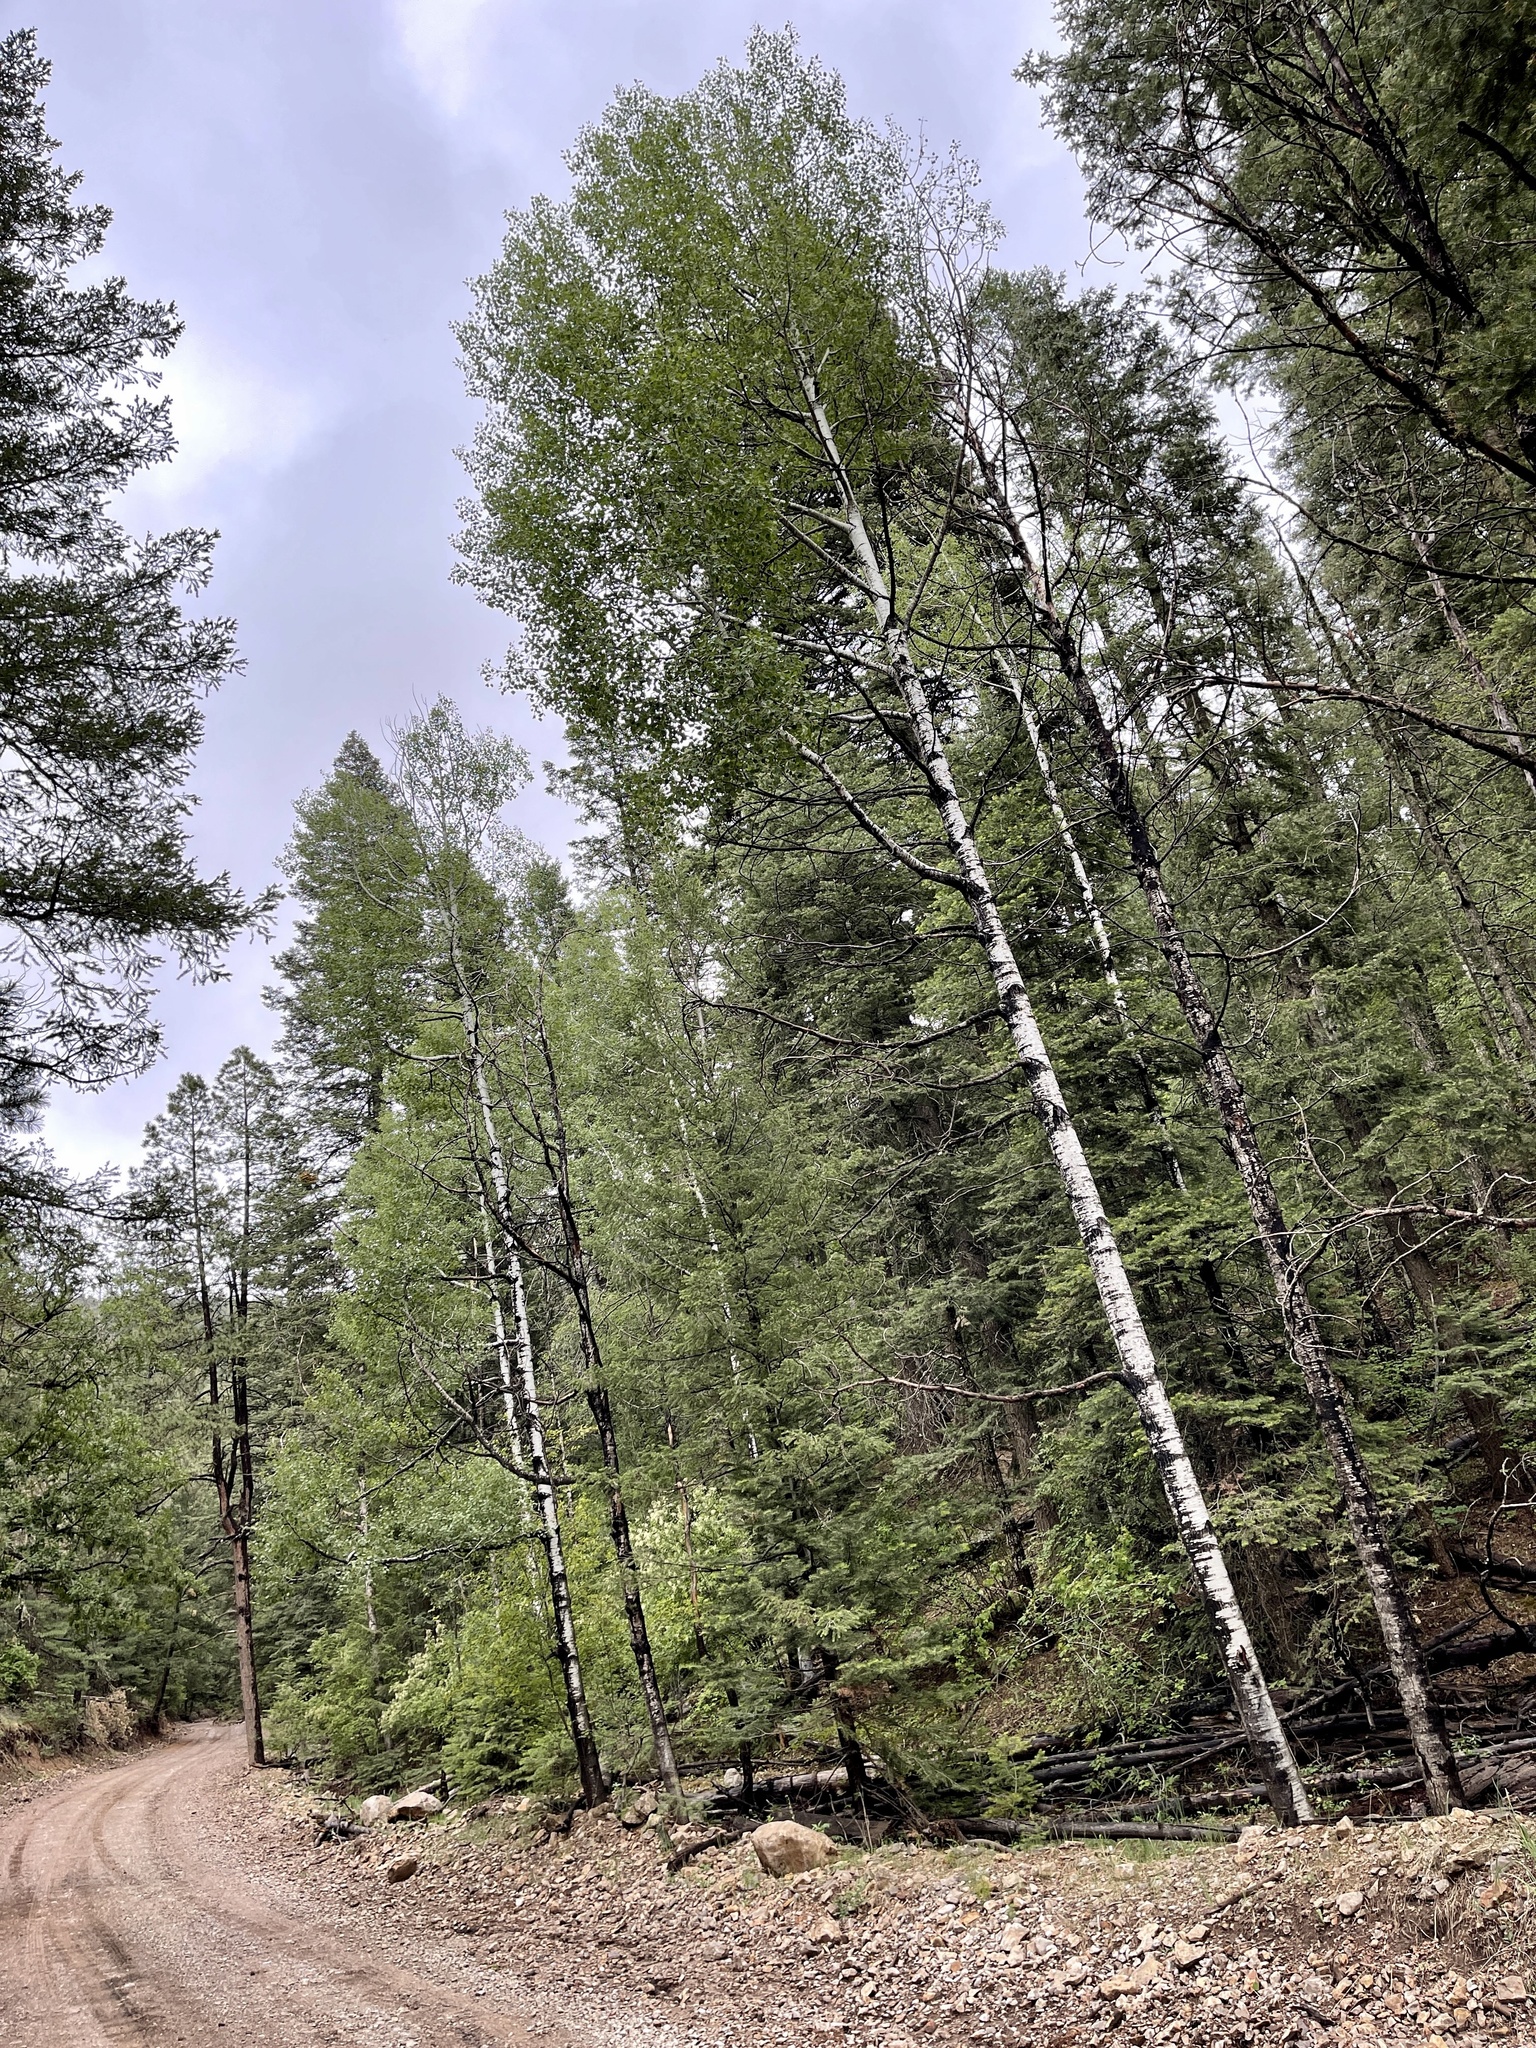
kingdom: Plantae
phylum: Tracheophyta
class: Magnoliopsida
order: Malpighiales
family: Salicaceae
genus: Populus
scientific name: Populus tremuloides
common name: Quaking aspen
